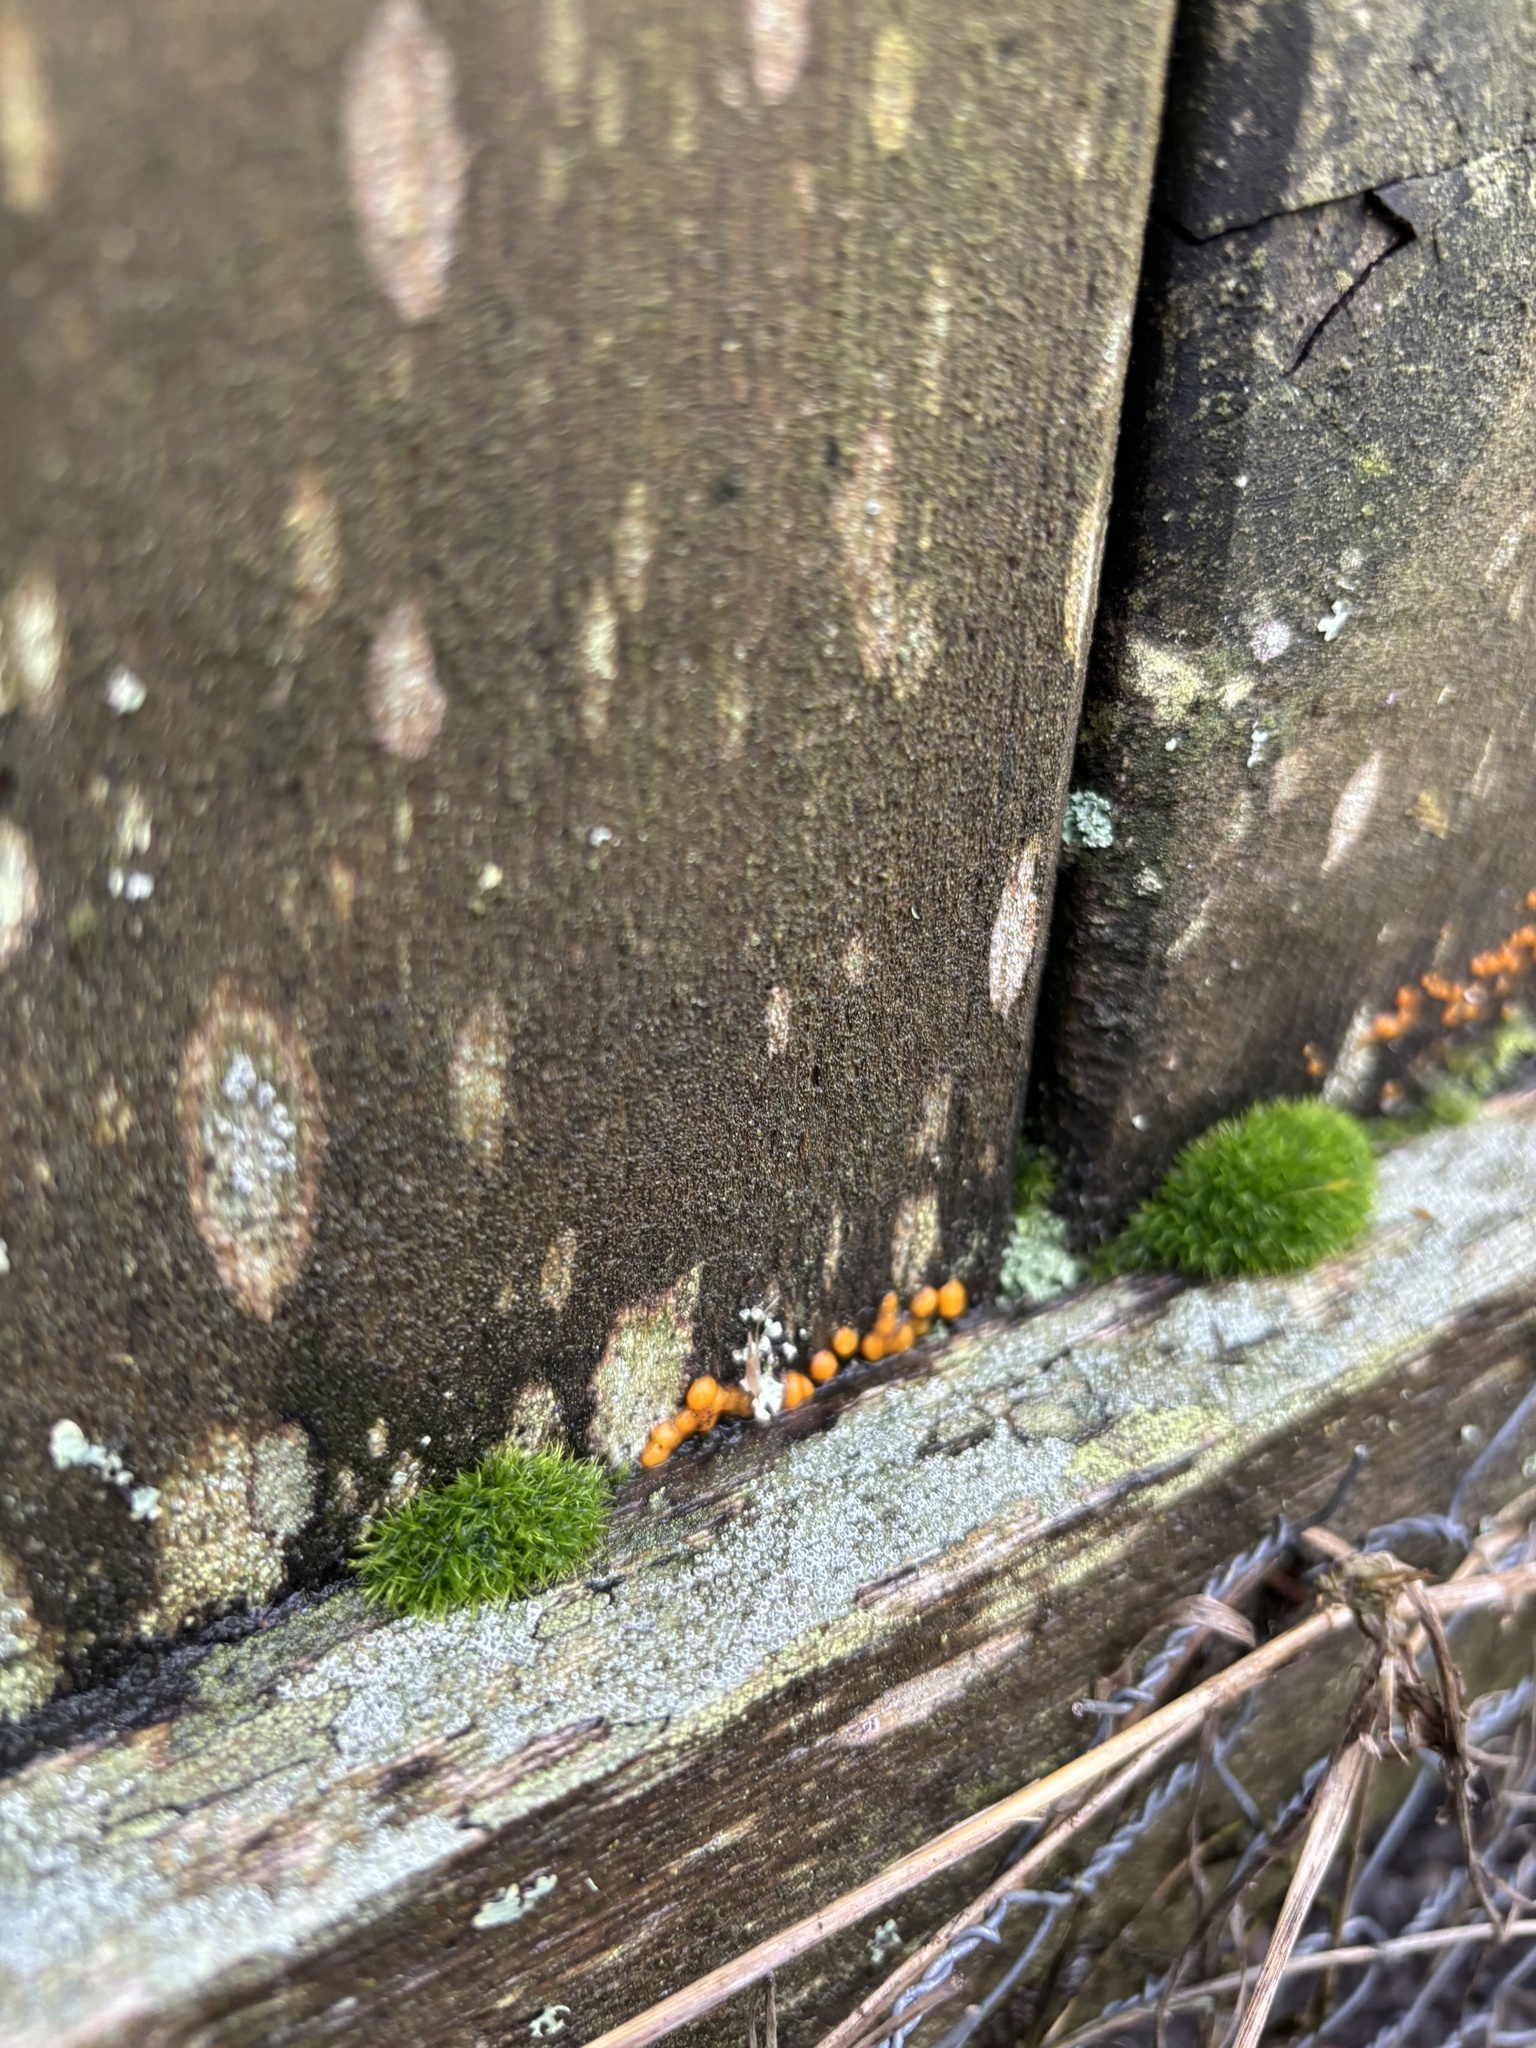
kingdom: Fungi
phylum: Basidiomycota
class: Dacrymycetes
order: Dacrymycetales
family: Dacrymycetaceae
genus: Dacrymyces
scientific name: Dacrymyces stillatus
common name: Common jelly spot
